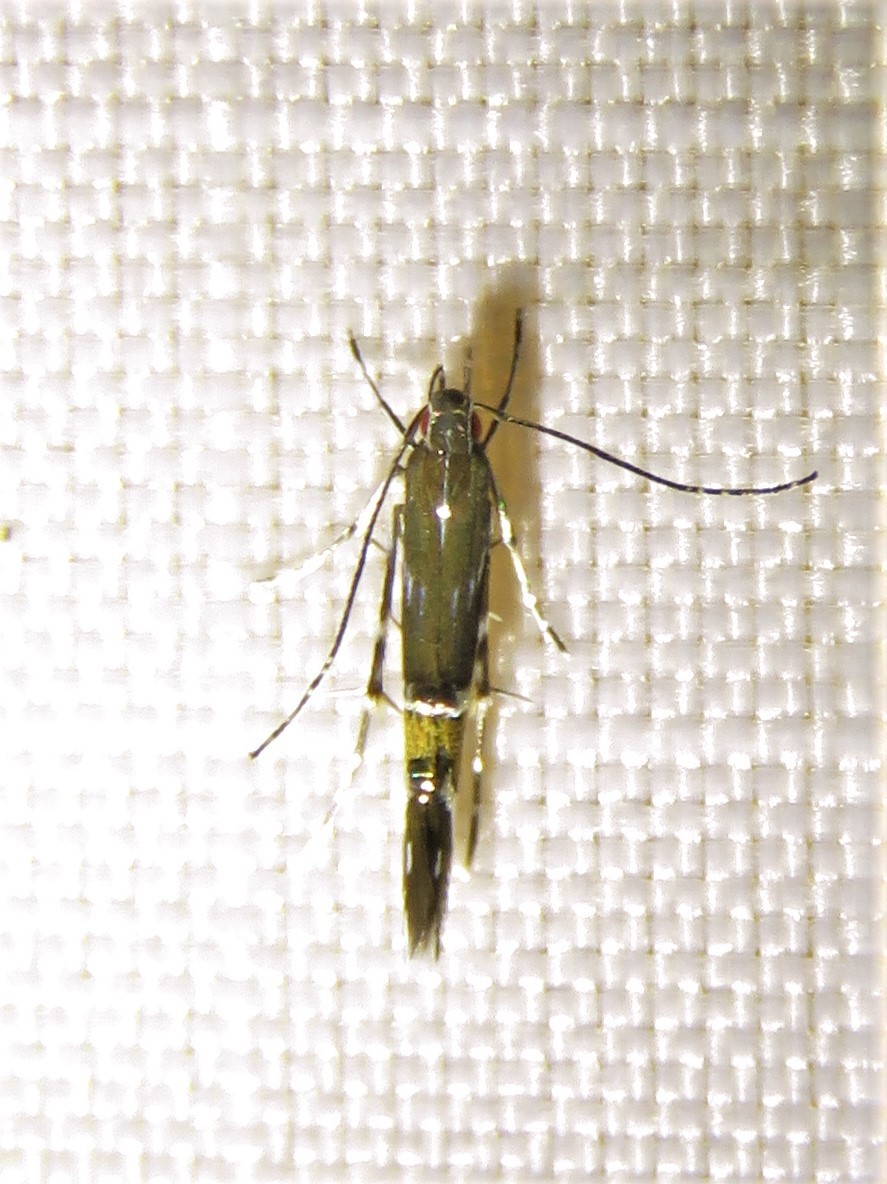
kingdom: Animalia
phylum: Arthropoda
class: Insecta
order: Lepidoptera
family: Cosmopterigidae
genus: Cosmopterix
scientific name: Cosmopterix pulchrimella
